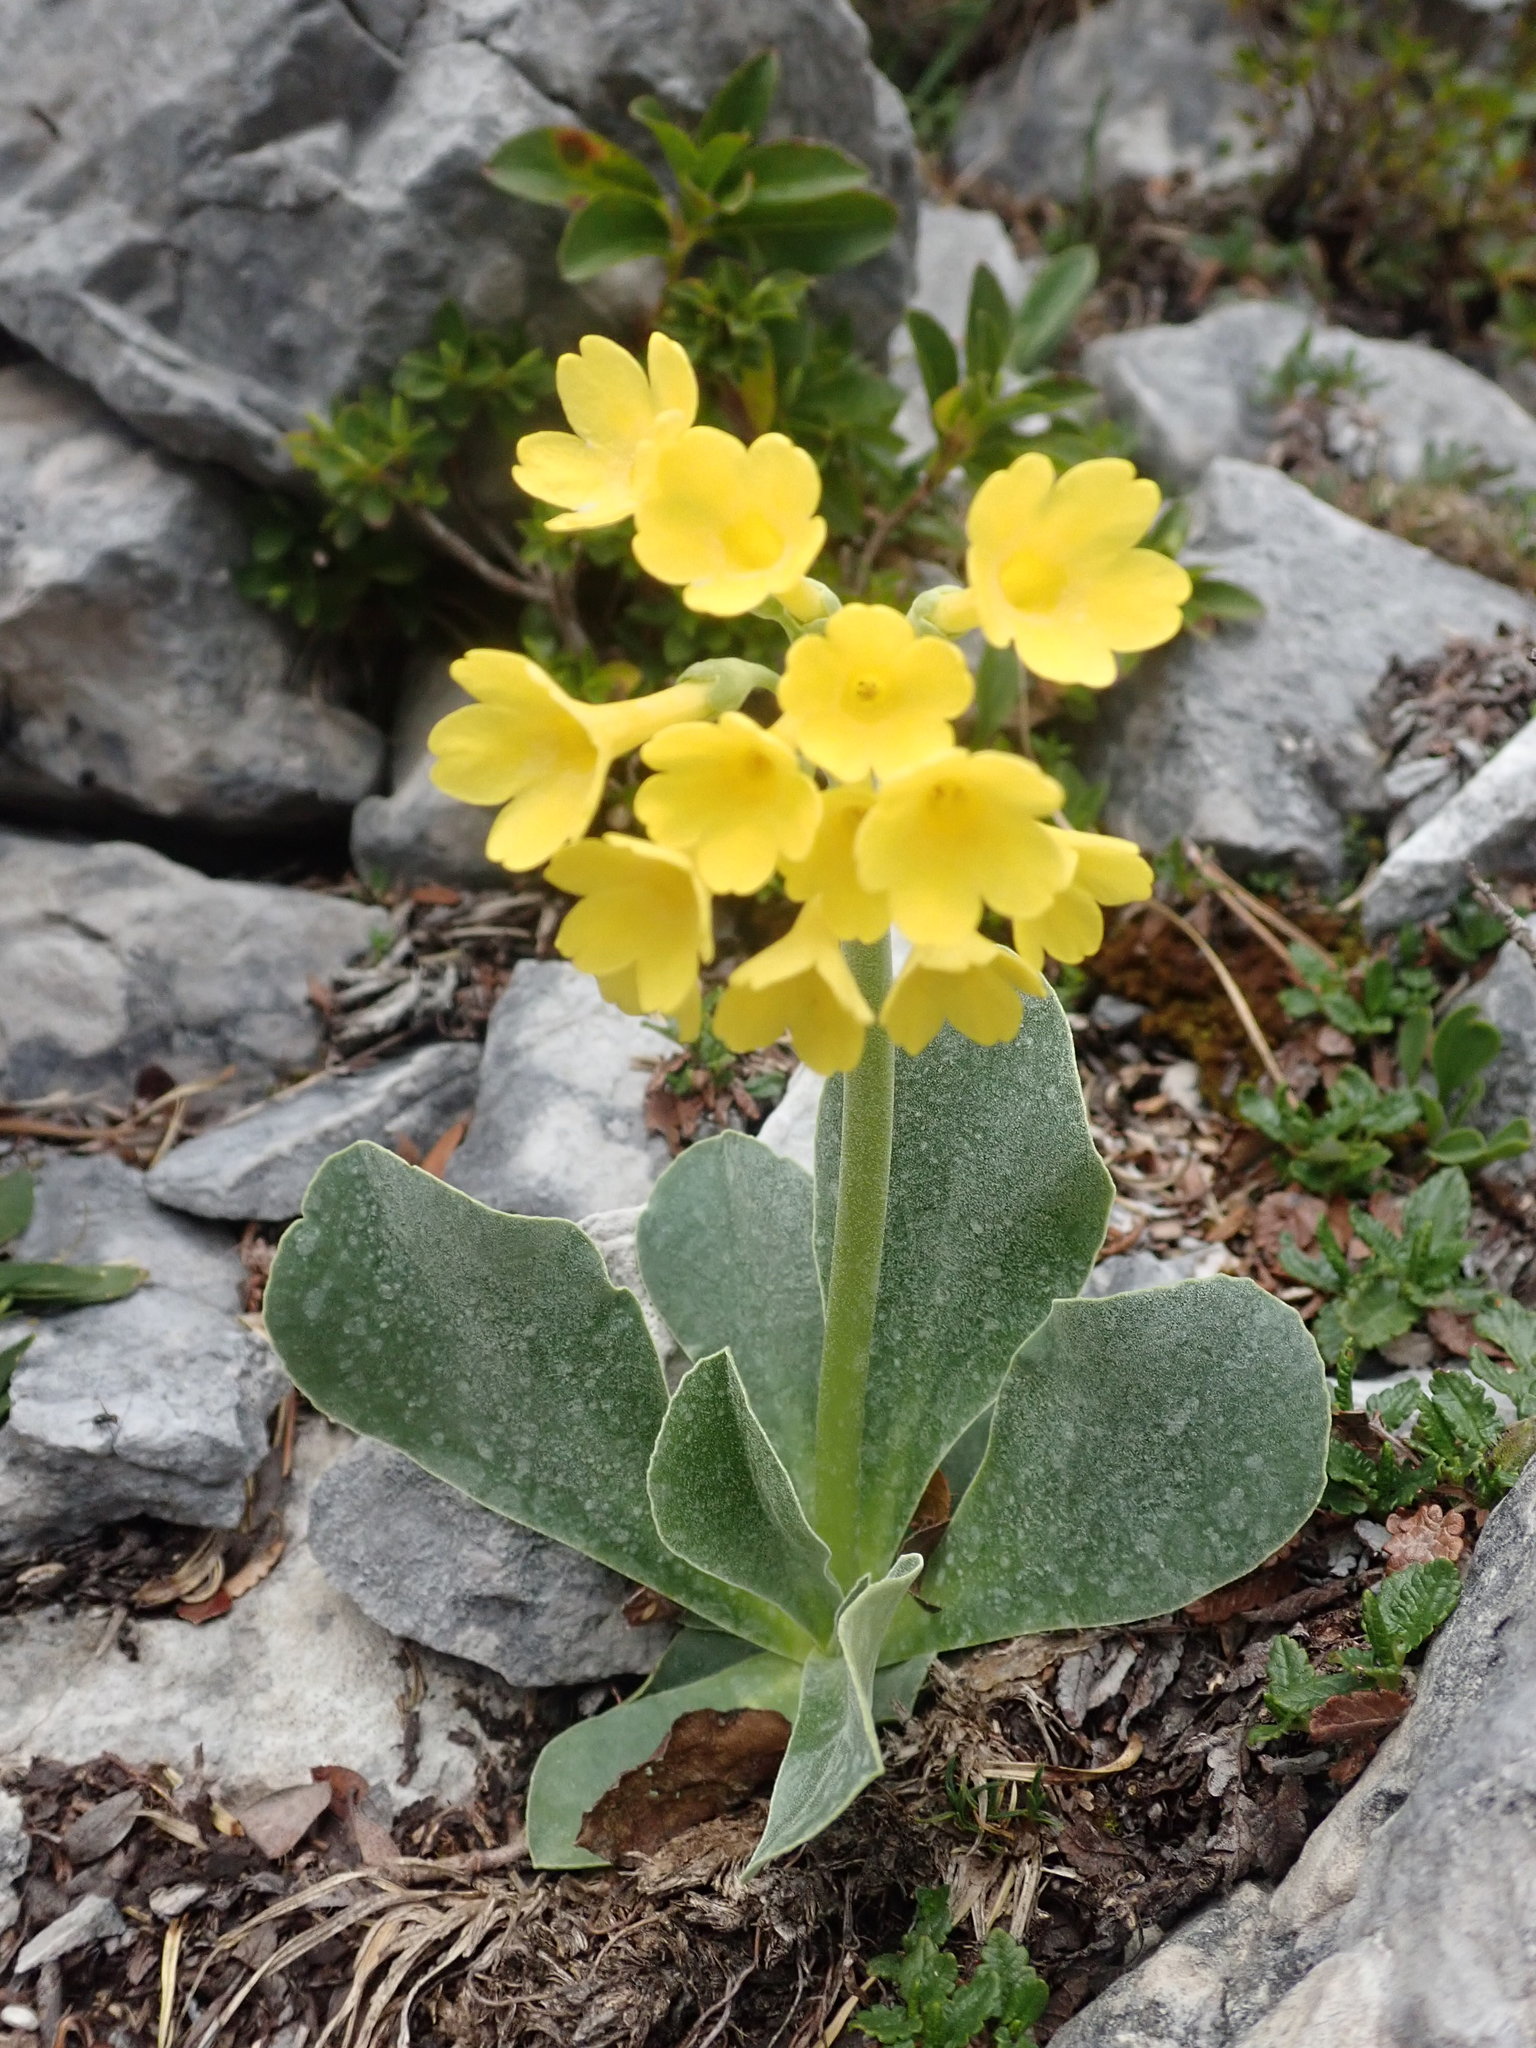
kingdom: Plantae
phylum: Tracheophyta
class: Magnoliopsida
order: Ericales
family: Primulaceae
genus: Primula
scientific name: Primula auricula
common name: Auricula
